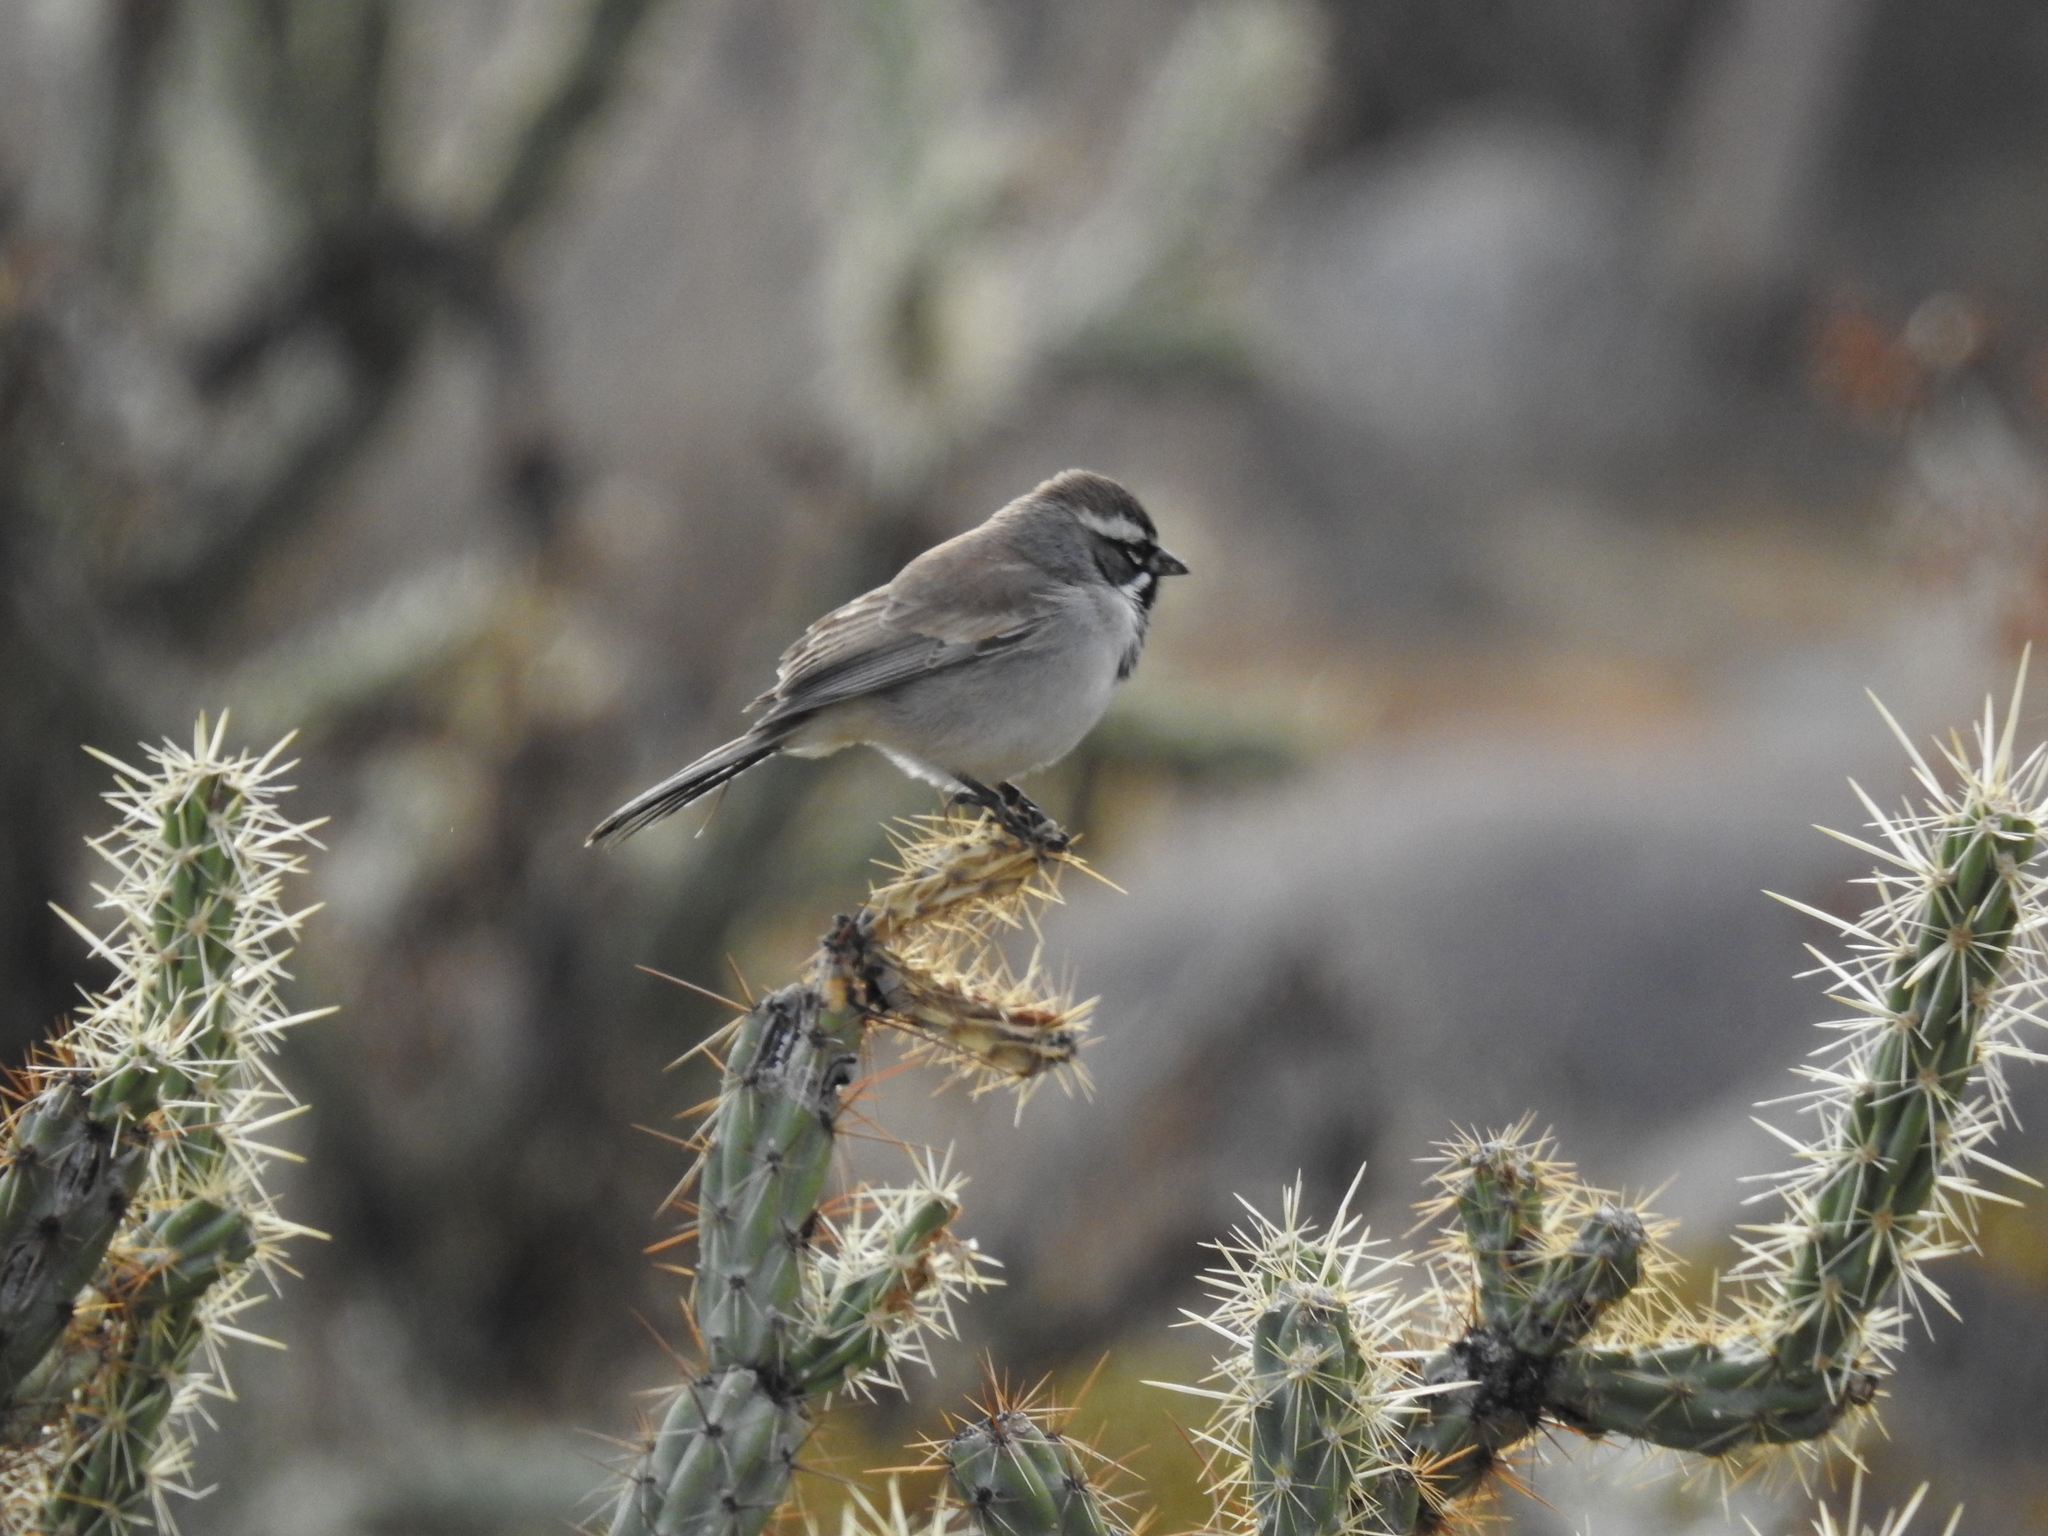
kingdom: Animalia
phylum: Chordata
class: Aves
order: Passeriformes
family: Passerellidae
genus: Amphispiza
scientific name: Amphispiza bilineata
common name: Black-throated sparrow
